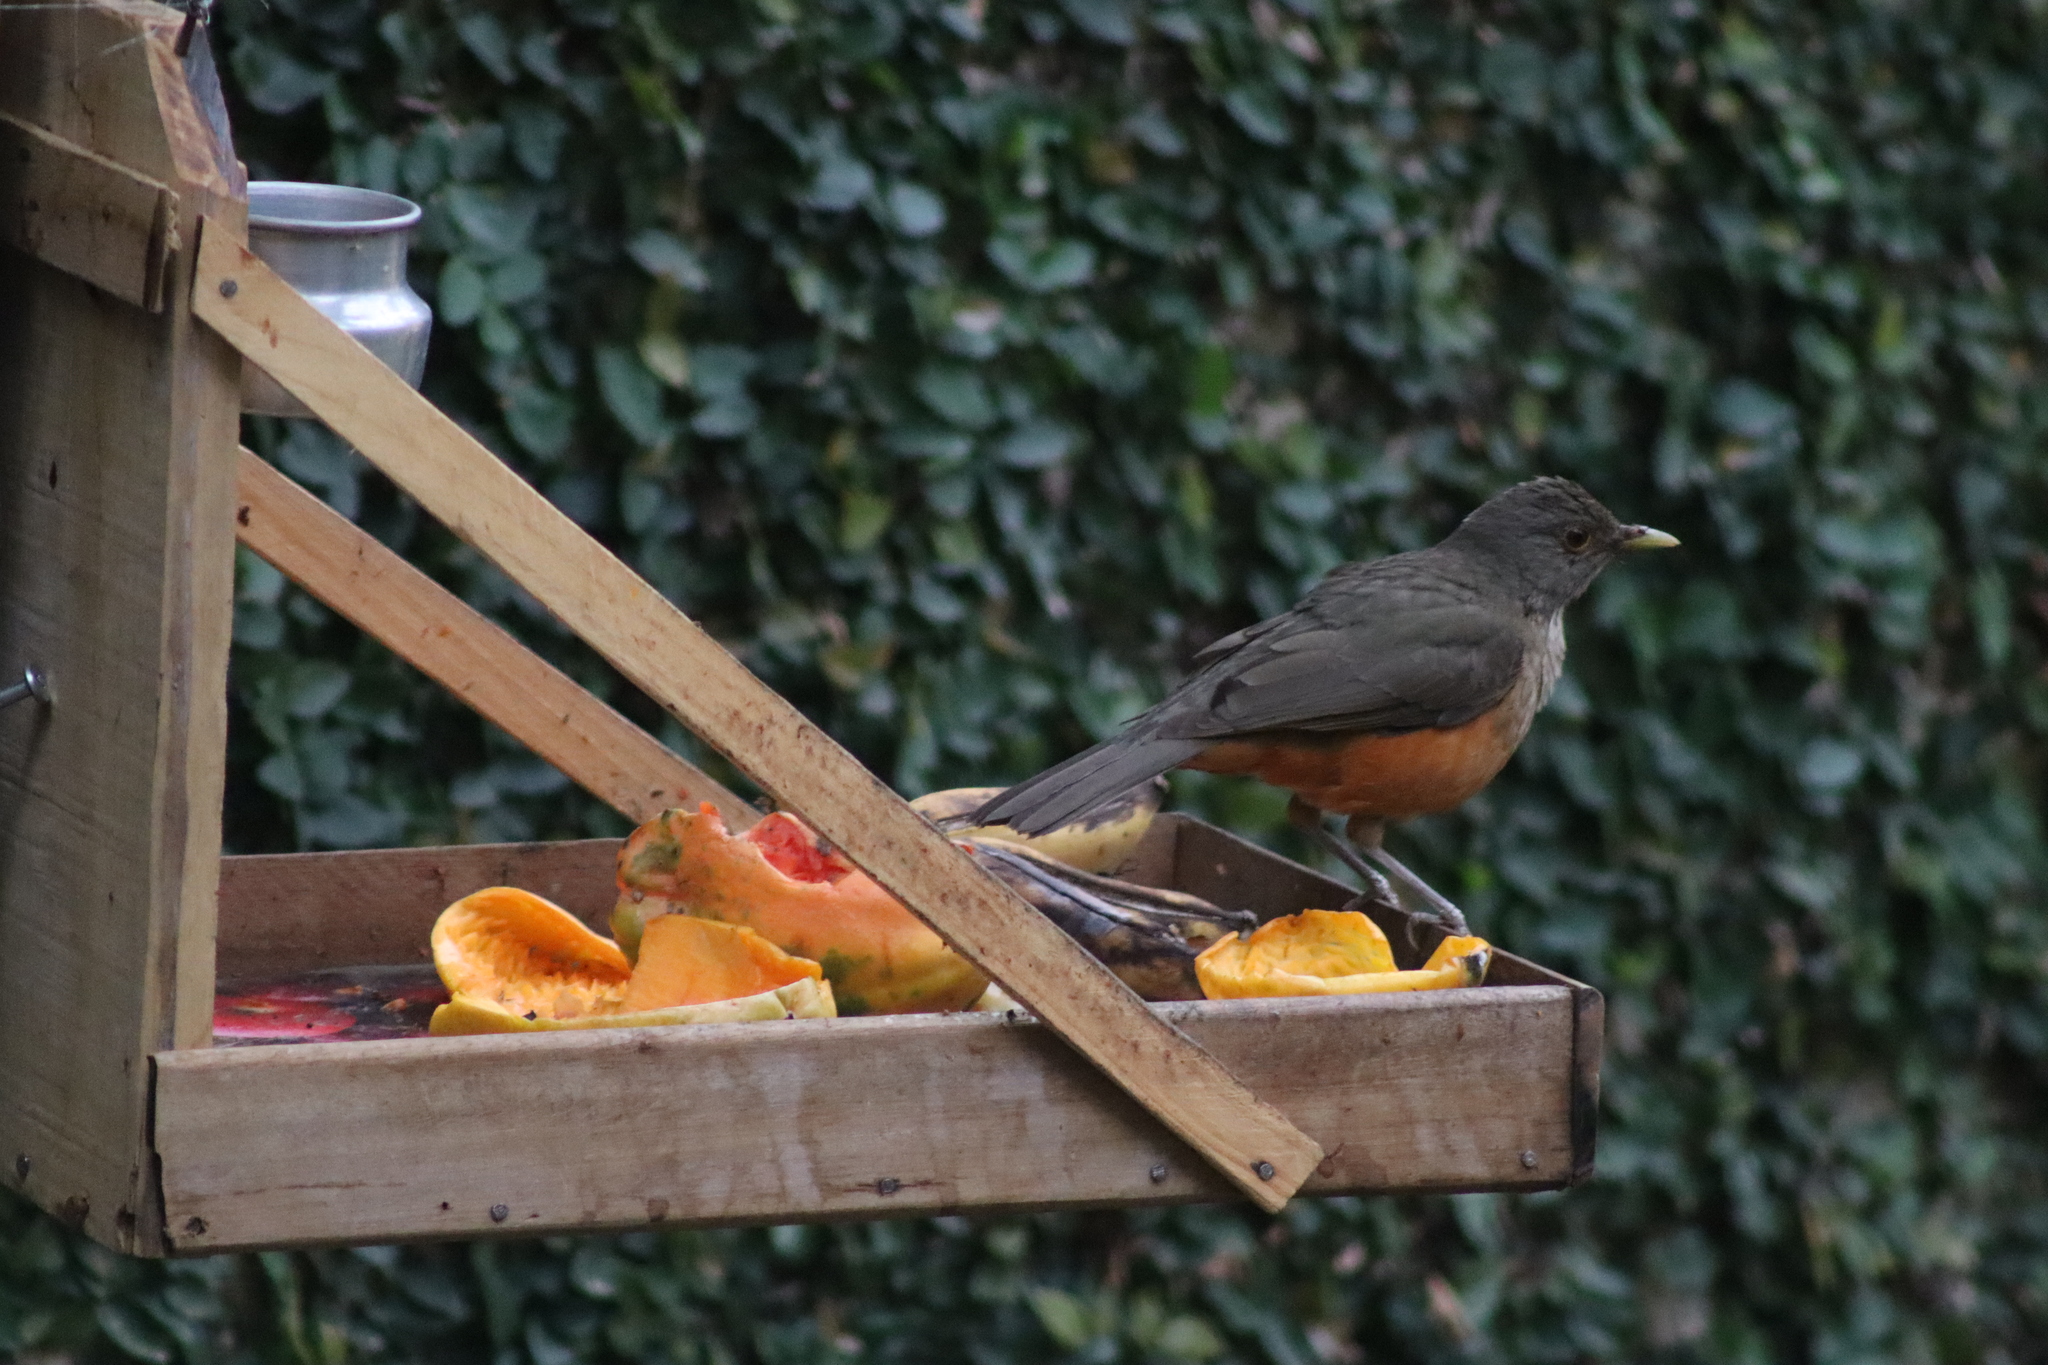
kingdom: Animalia
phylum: Chordata
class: Aves
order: Passeriformes
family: Turdidae
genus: Turdus
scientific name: Turdus rufiventris
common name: Rufous-bellied thrush
